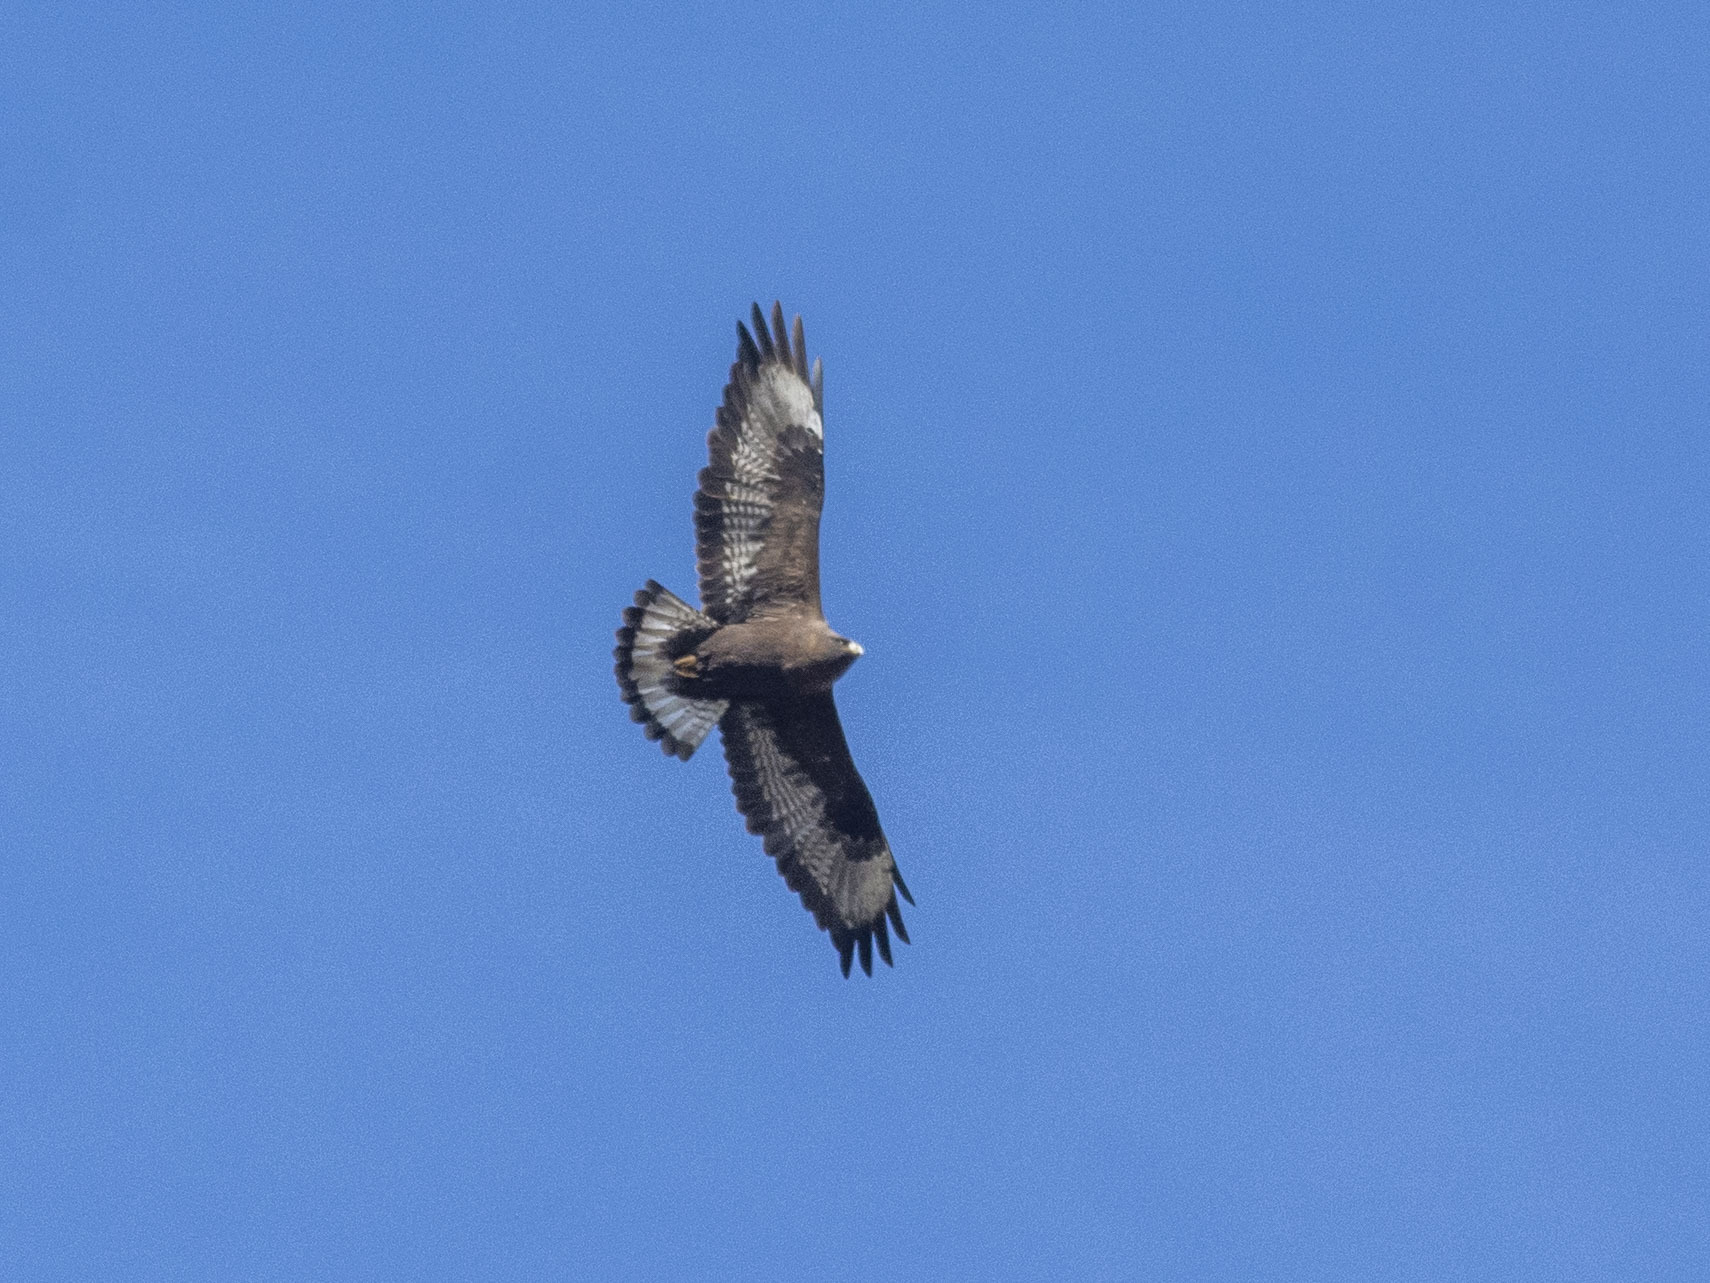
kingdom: Animalia
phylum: Chordata
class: Aves
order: Accipitriformes
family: Accipitridae
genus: Buteo
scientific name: Buteo rufinus
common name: Long-legged buzzard
